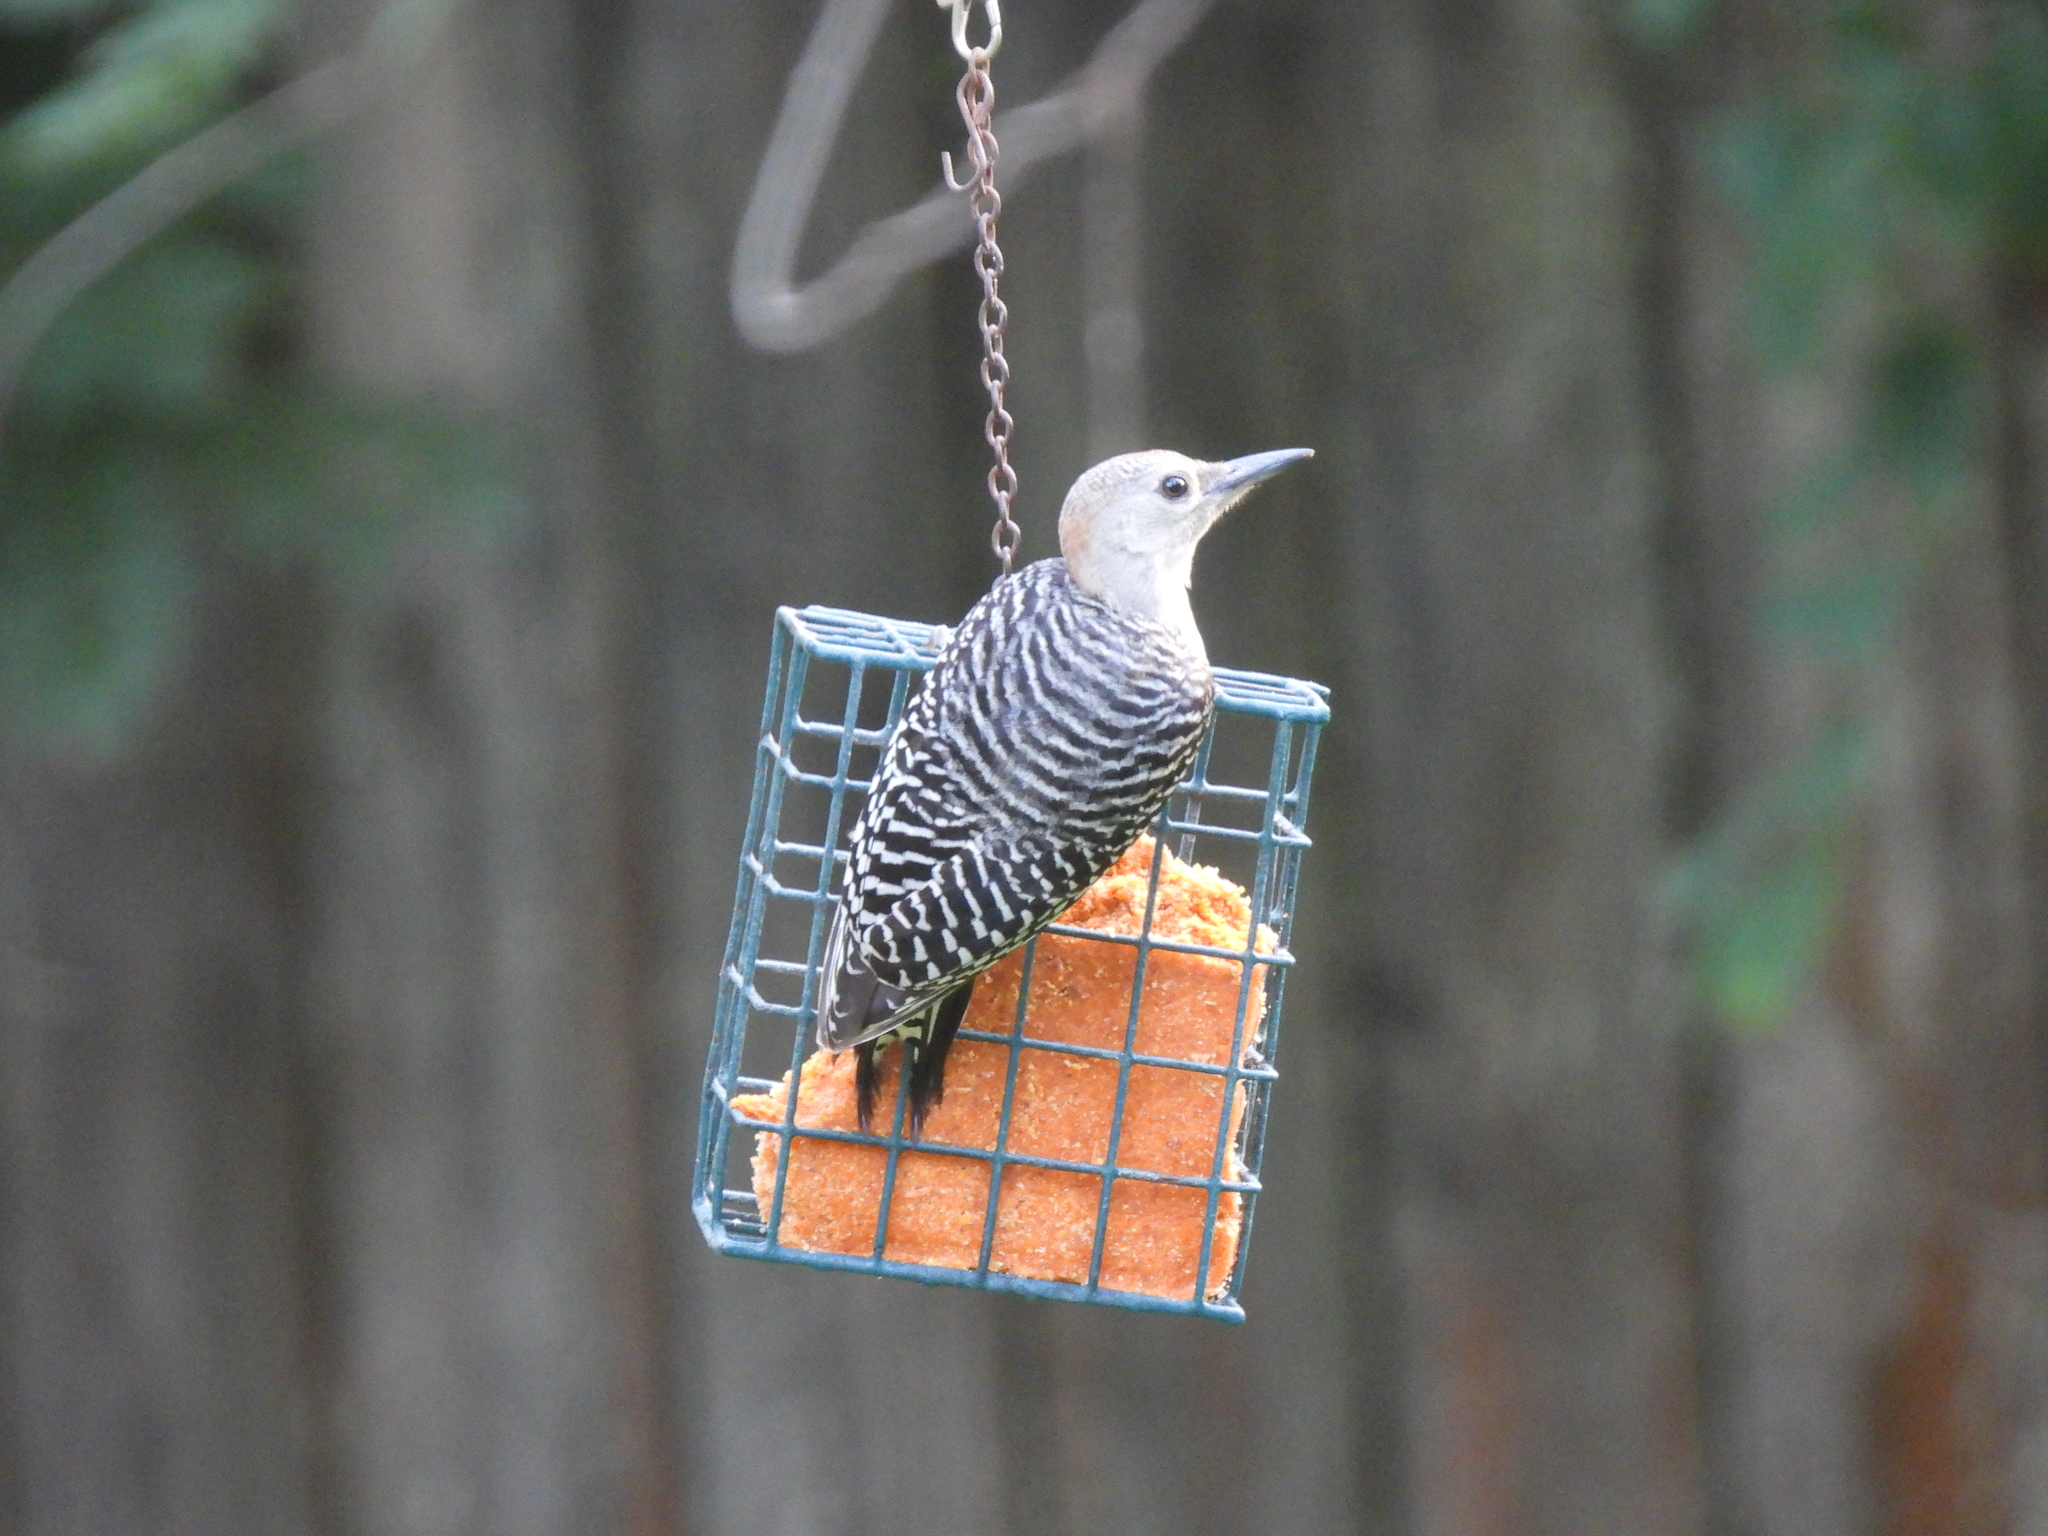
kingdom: Animalia
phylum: Chordata
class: Aves
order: Piciformes
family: Picidae
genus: Melanerpes
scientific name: Melanerpes carolinus
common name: Red-bellied woodpecker
